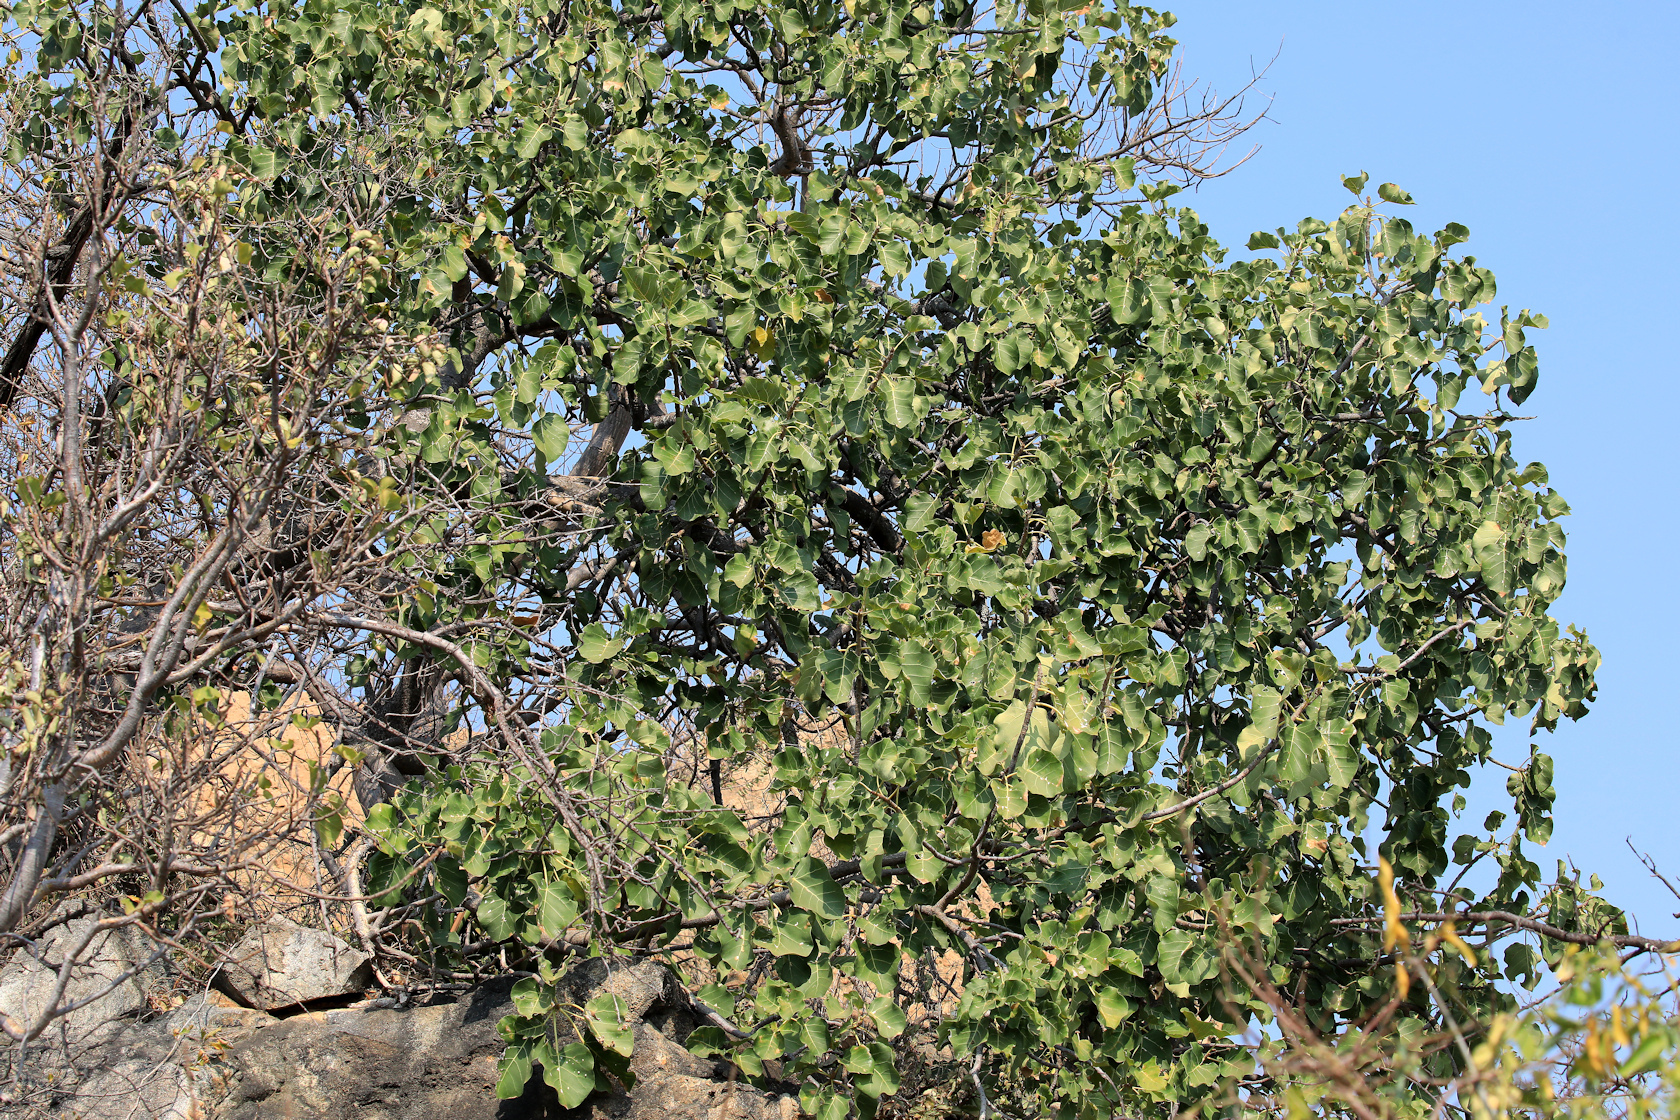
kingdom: Plantae
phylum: Tracheophyta
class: Magnoliopsida
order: Rosales
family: Moraceae
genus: Ficus
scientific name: Ficus abutilifolia
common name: Large-leaved rock fig
